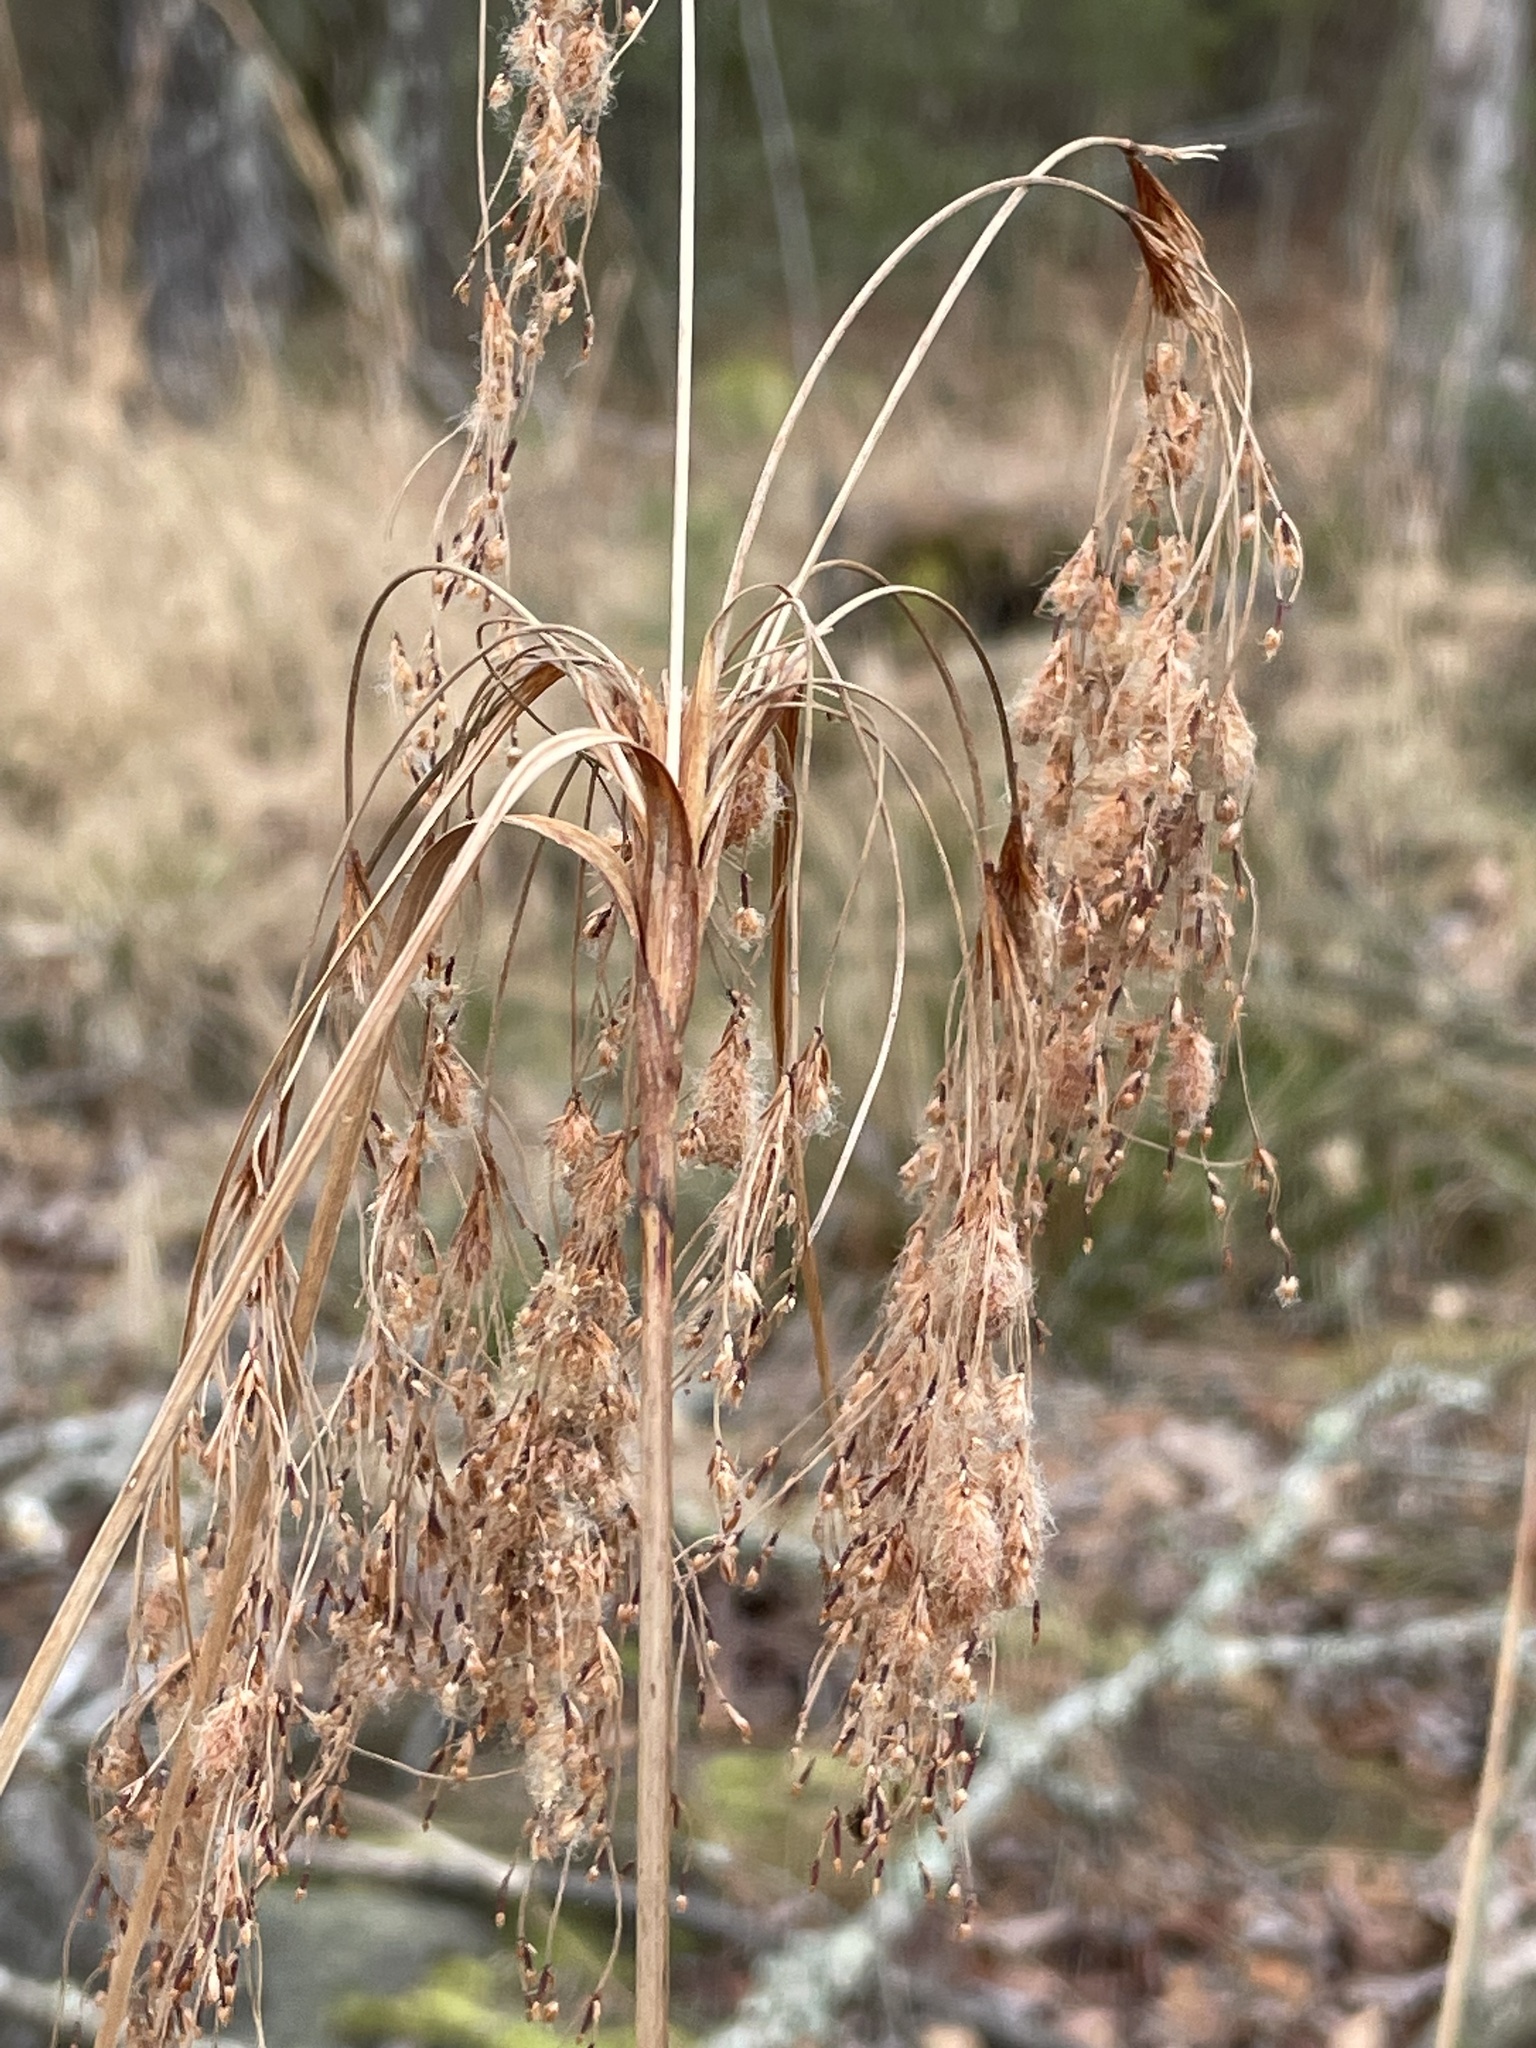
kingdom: Plantae
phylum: Tracheophyta
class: Liliopsida
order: Poales
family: Cyperaceae
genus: Scirpus
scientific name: Scirpus cyperinus
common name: Black-sheathed bulrush
